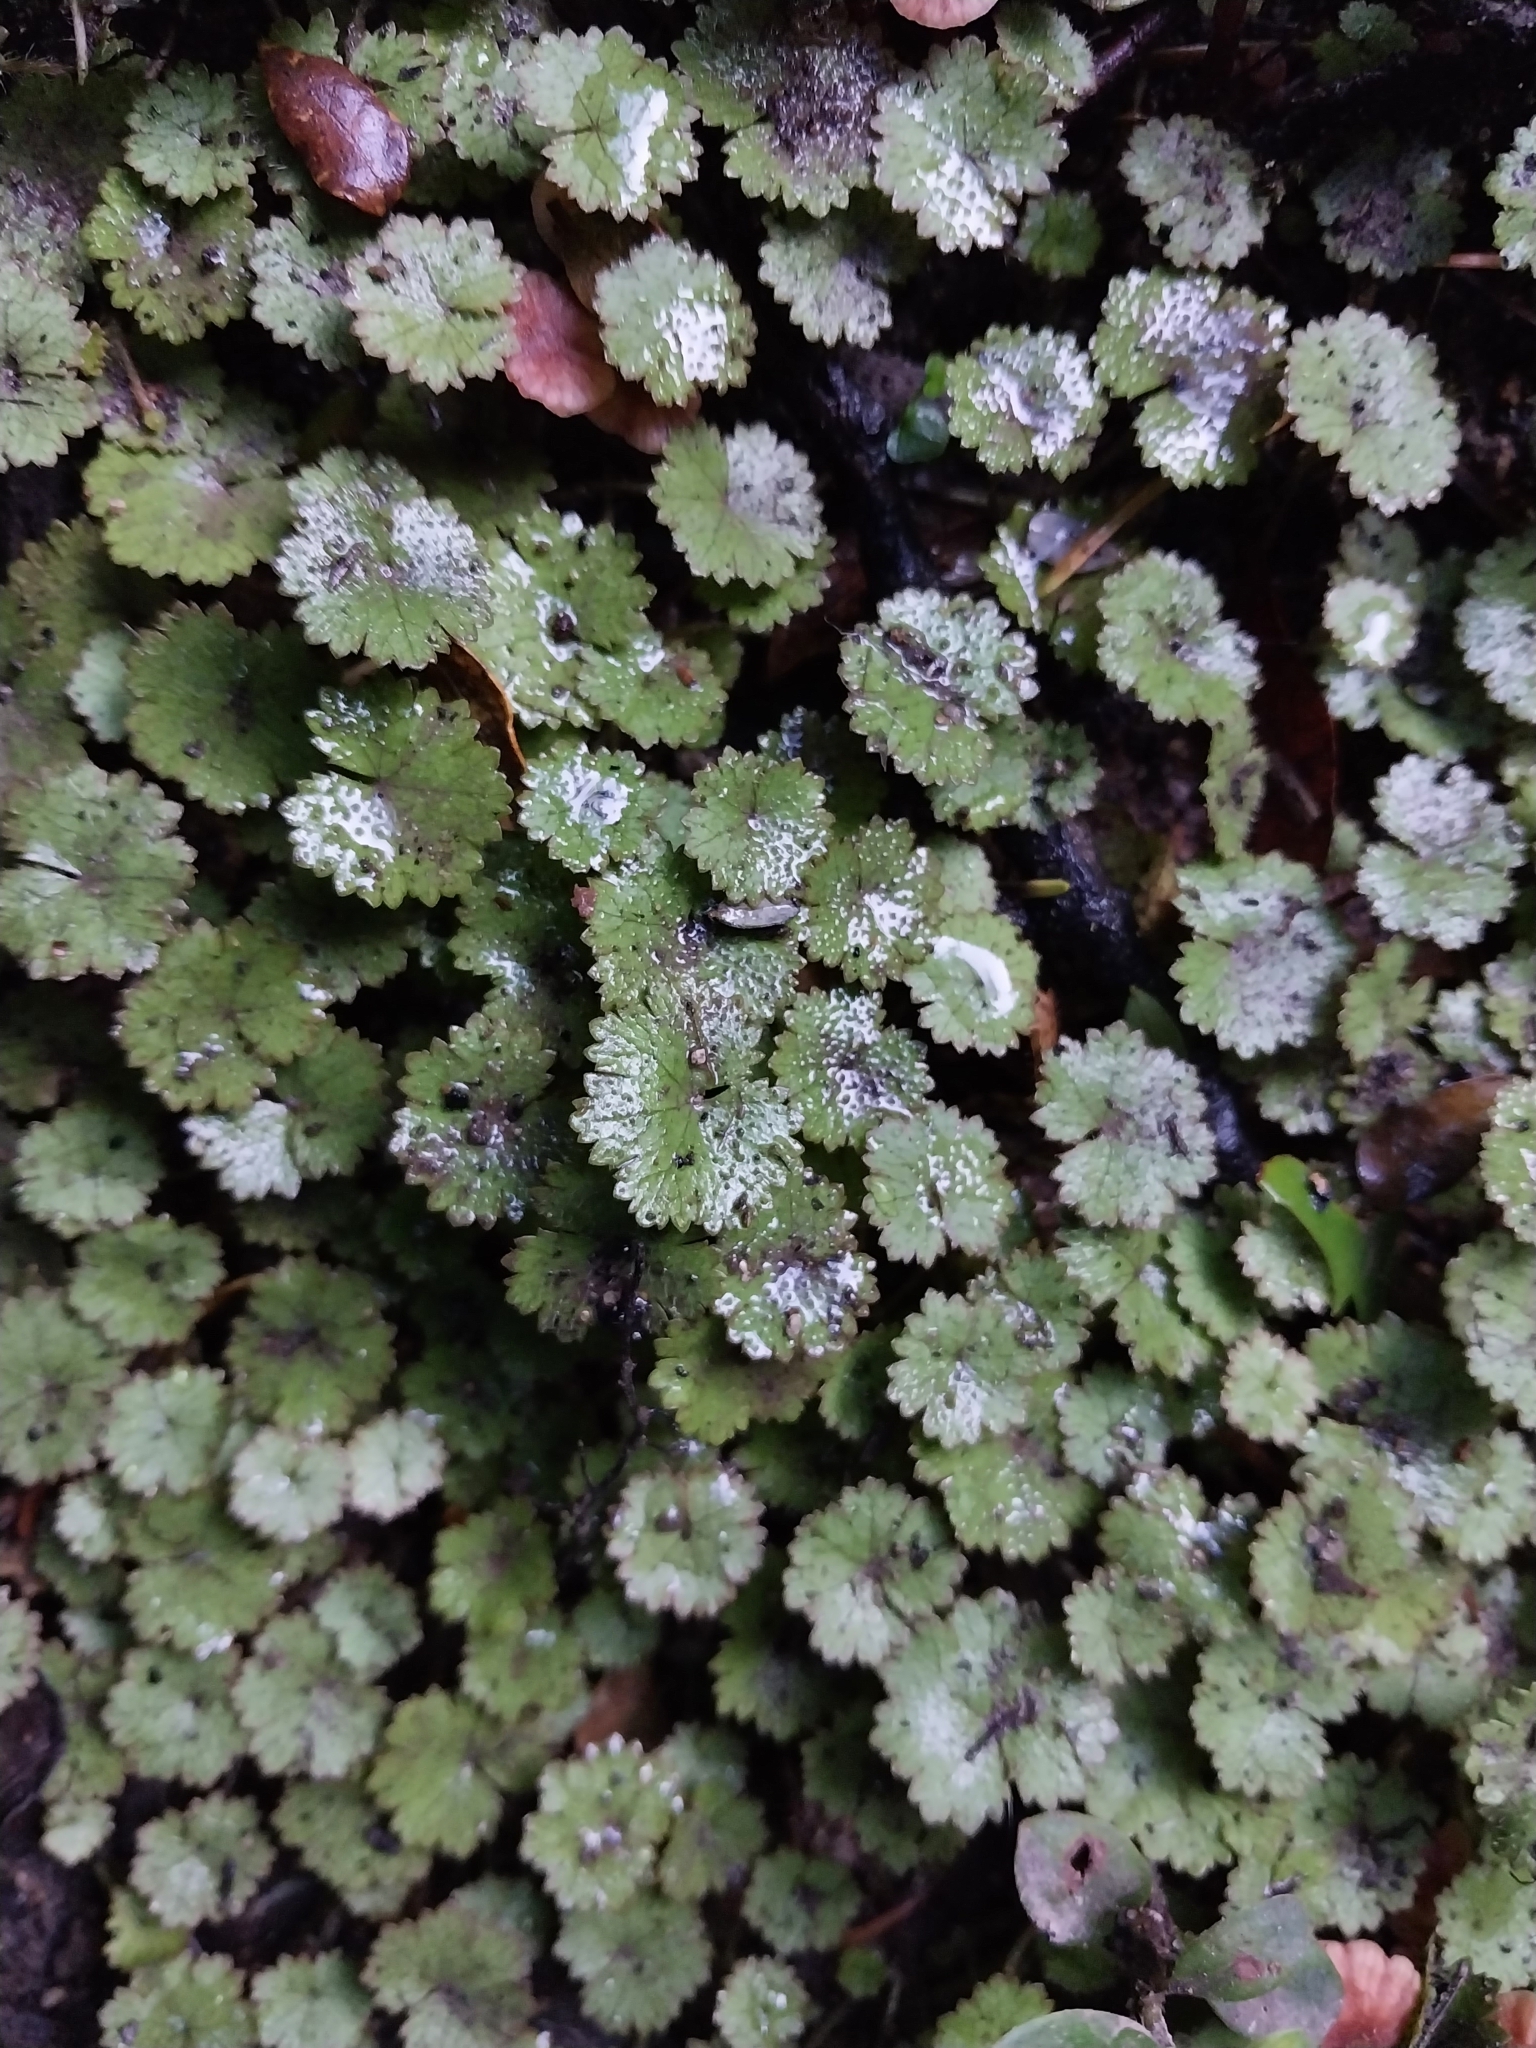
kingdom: Plantae
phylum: Tracheophyta
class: Magnoliopsida
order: Apiales
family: Araliaceae
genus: Hydrocotyle
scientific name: Hydrocotyle moschata
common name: Hairy pennywort
